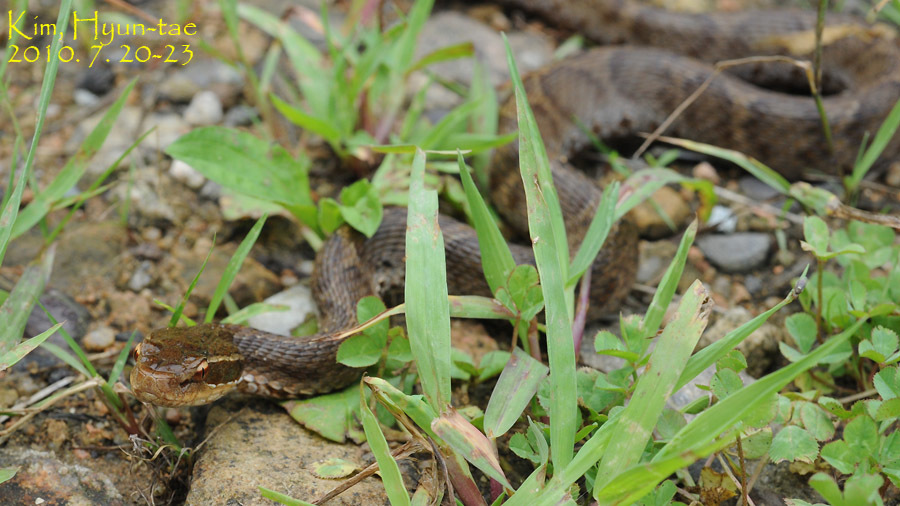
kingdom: Animalia
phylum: Chordata
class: Squamata
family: Viperidae
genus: Gloydius
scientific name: Gloydius ussuriensis
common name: Ussuri mamushi
